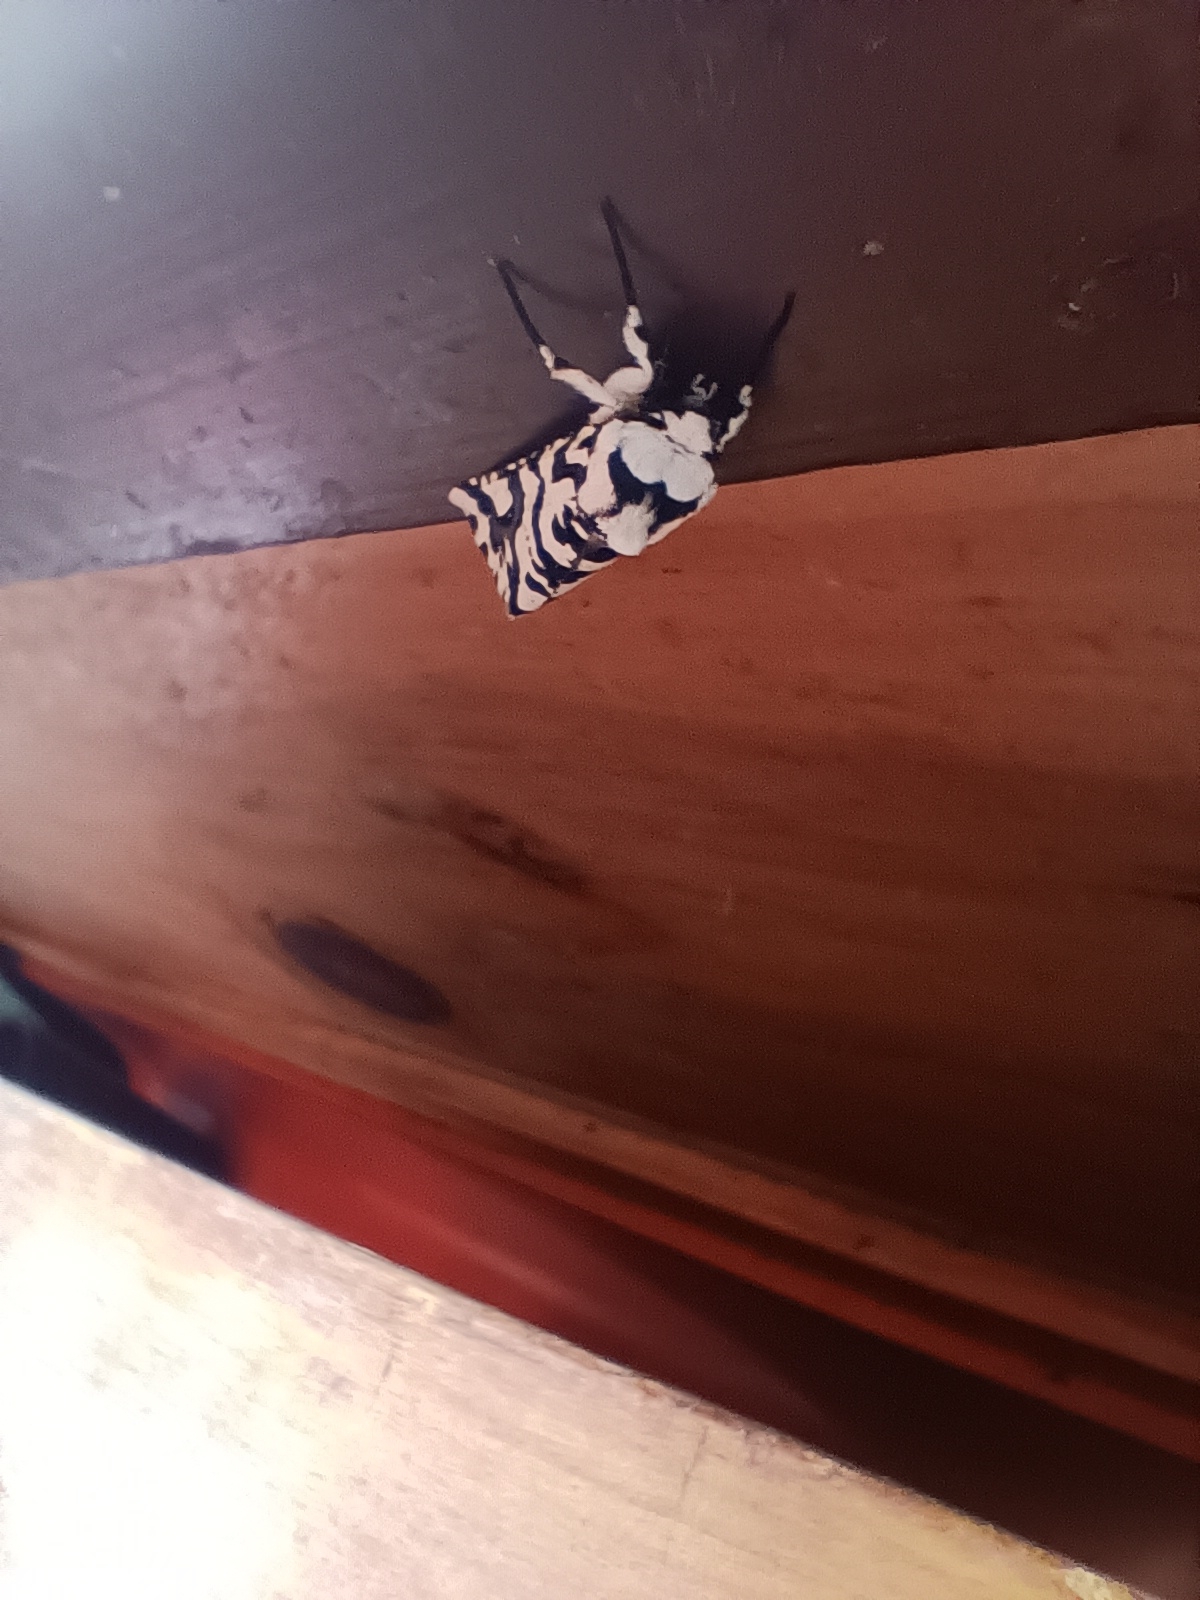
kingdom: Animalia
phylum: Arthropoda
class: Insecta
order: Lepidoptera
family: Geometridae
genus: Declana
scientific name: Declana
